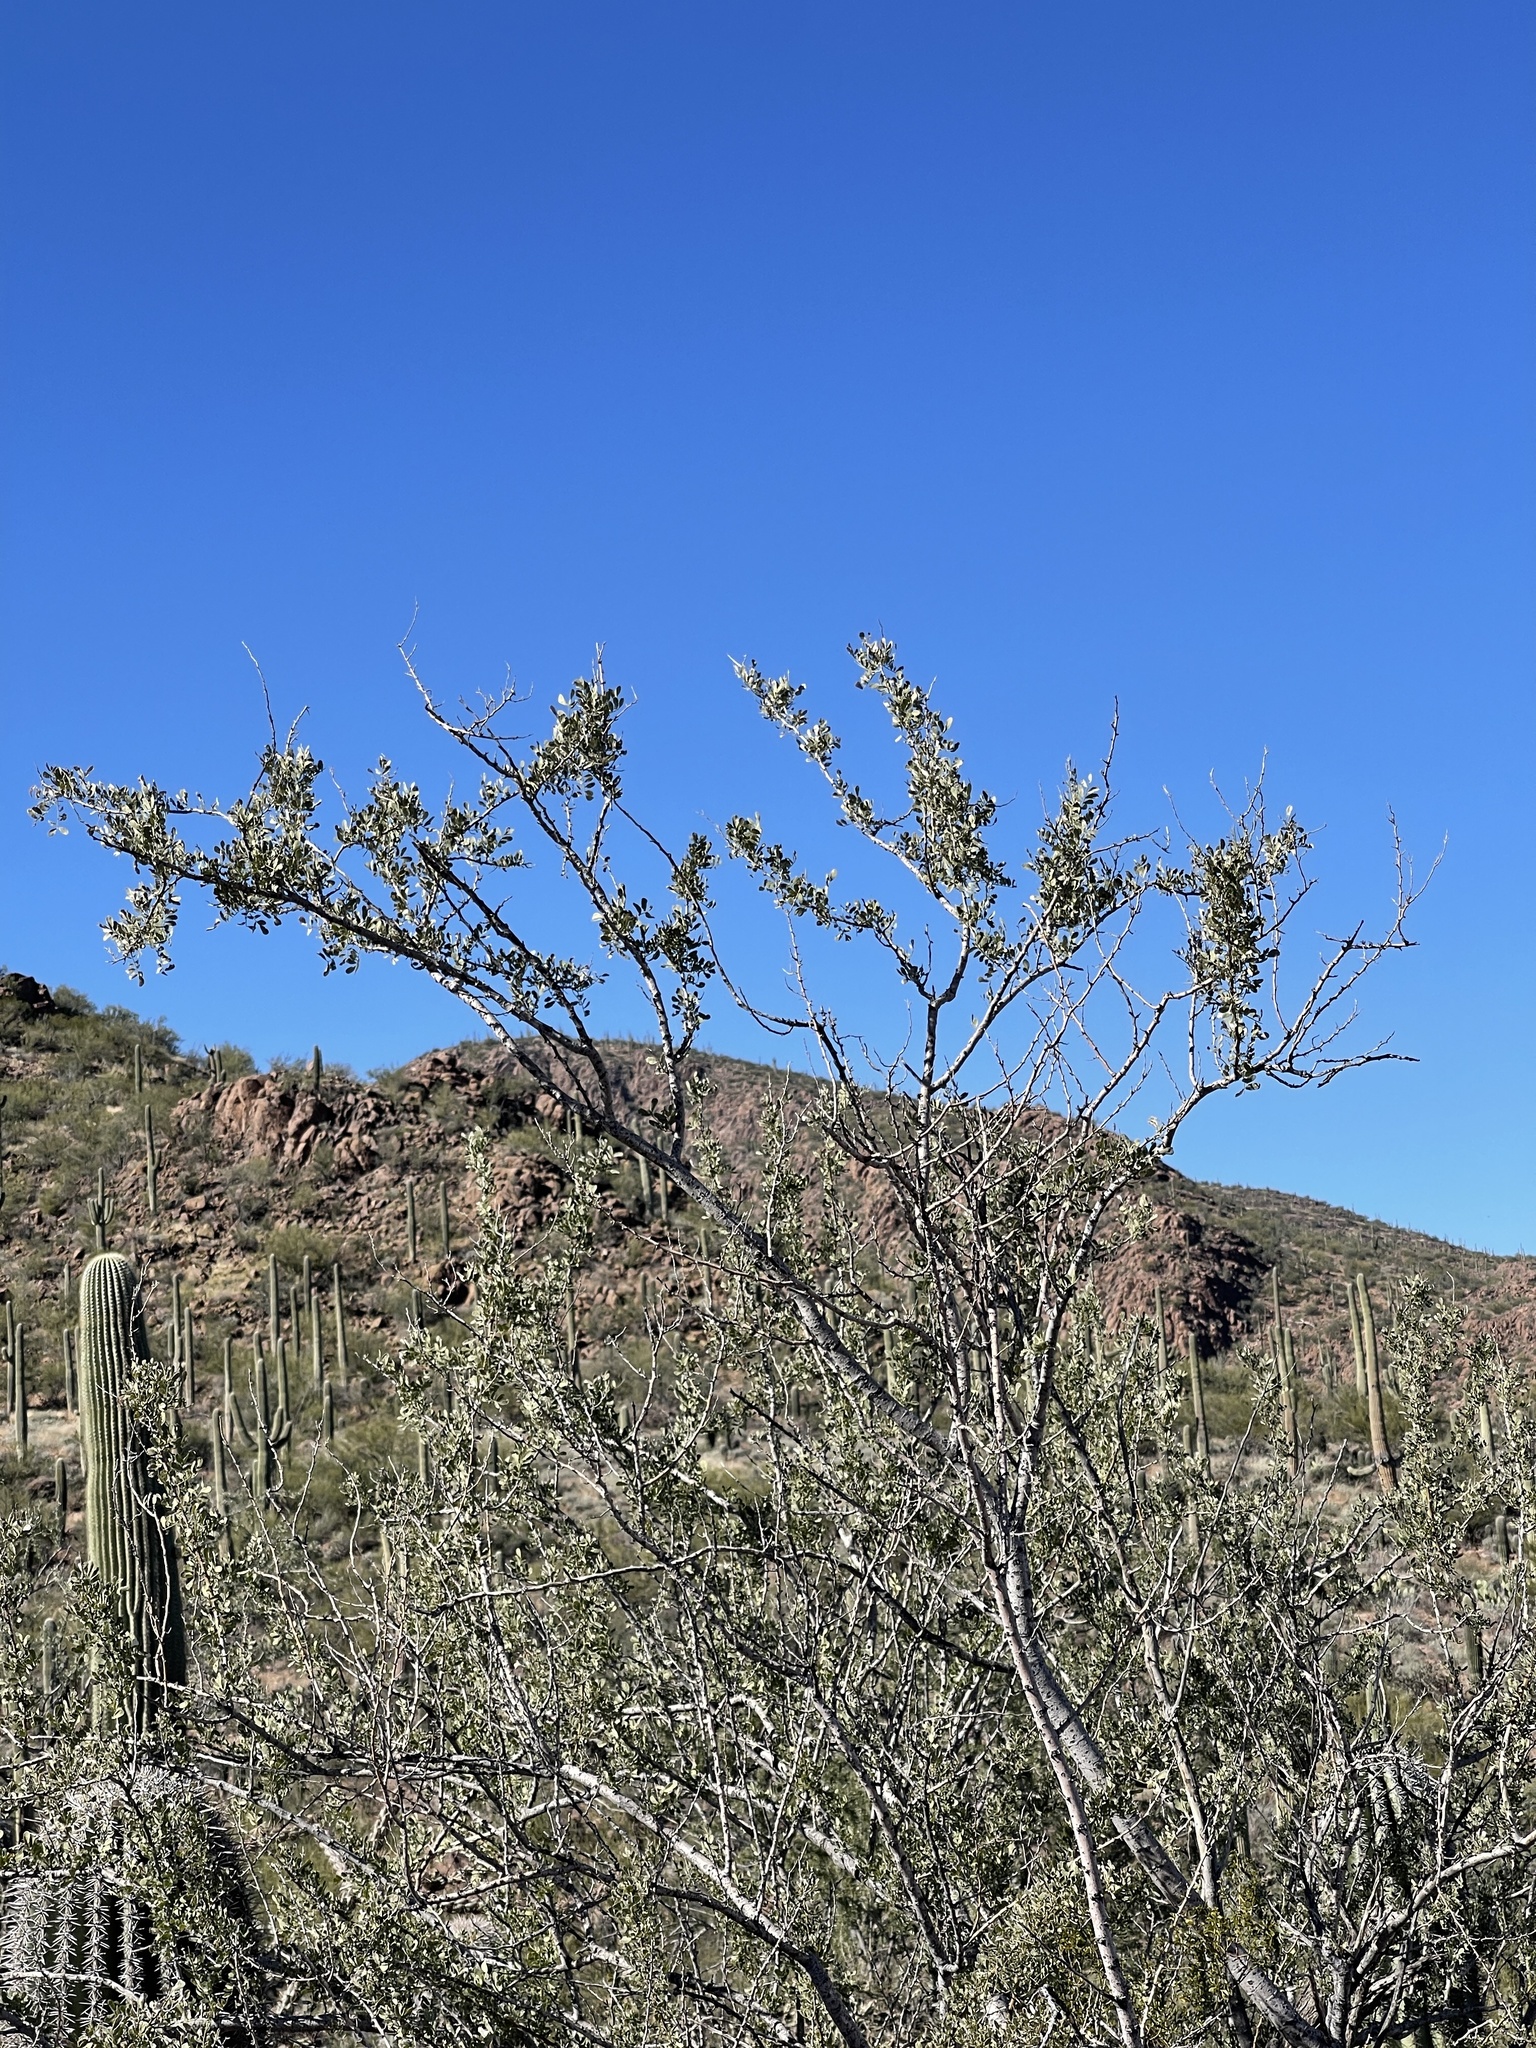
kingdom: Plantae
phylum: Tracheophyta
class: Magnoliopsida
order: Fabales
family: Fabaceae
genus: Olneya
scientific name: Olneya tesota
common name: Desert ironwood
